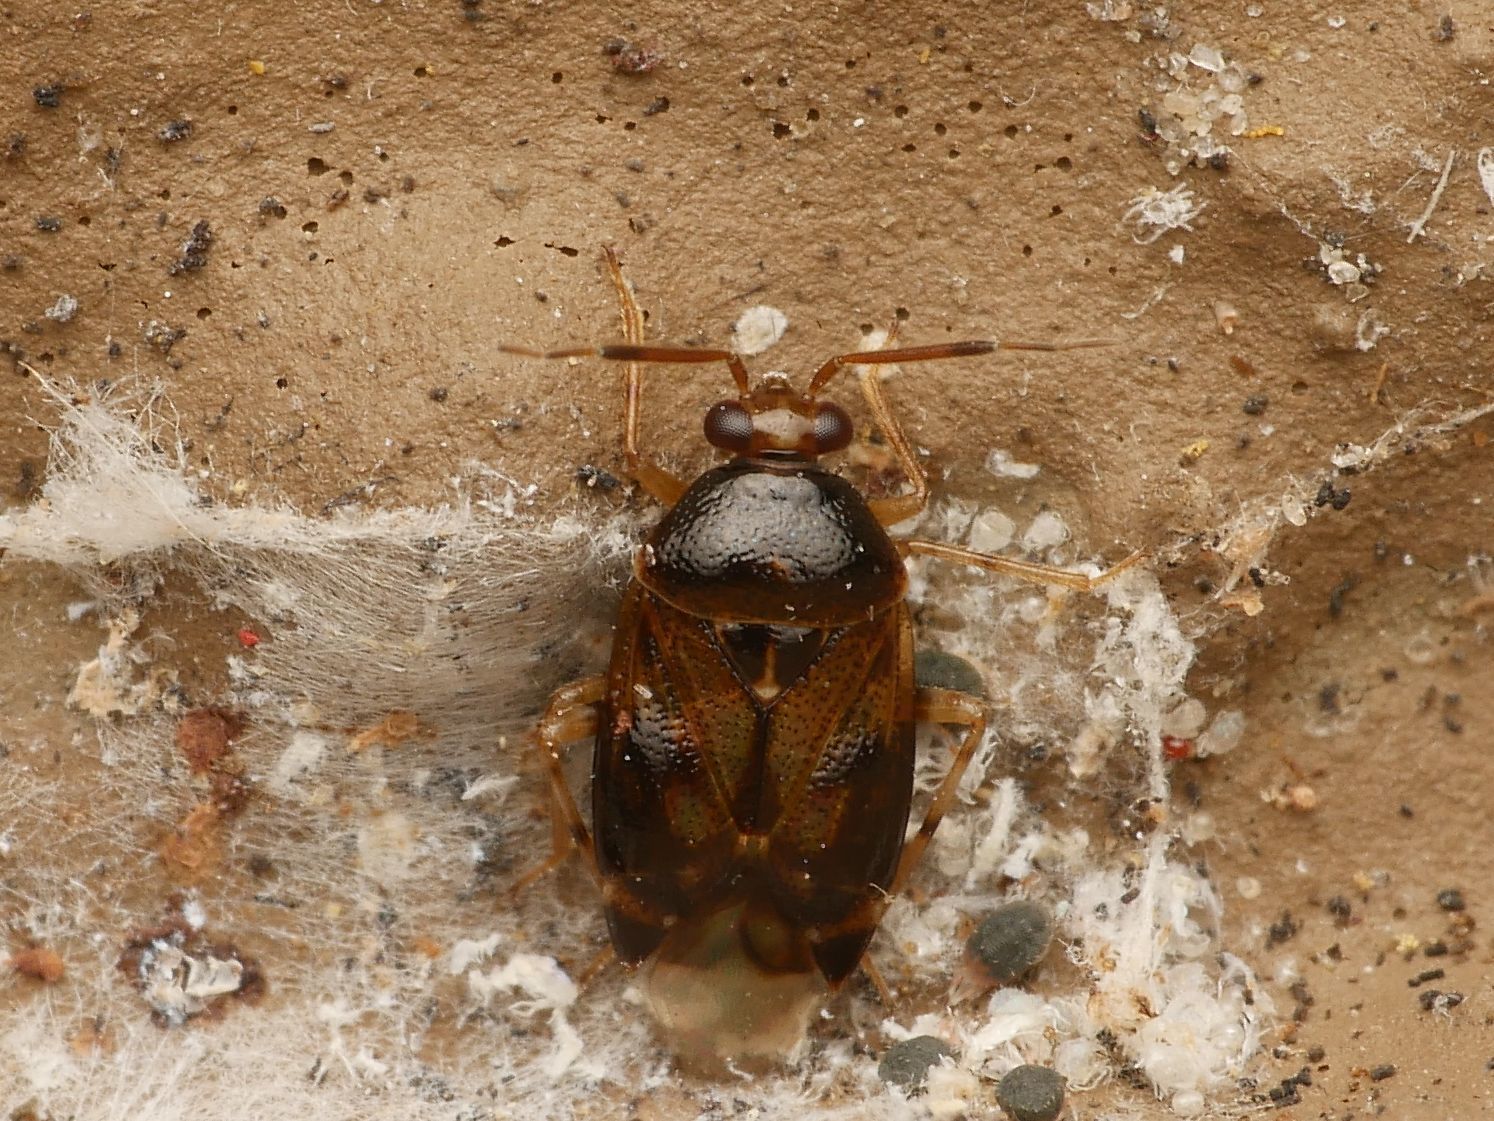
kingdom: Animalia
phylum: Arthropoda
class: Insecta
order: Hemiptera
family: Miridae
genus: Deraeocoris
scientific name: Deraeocoris lutescens
